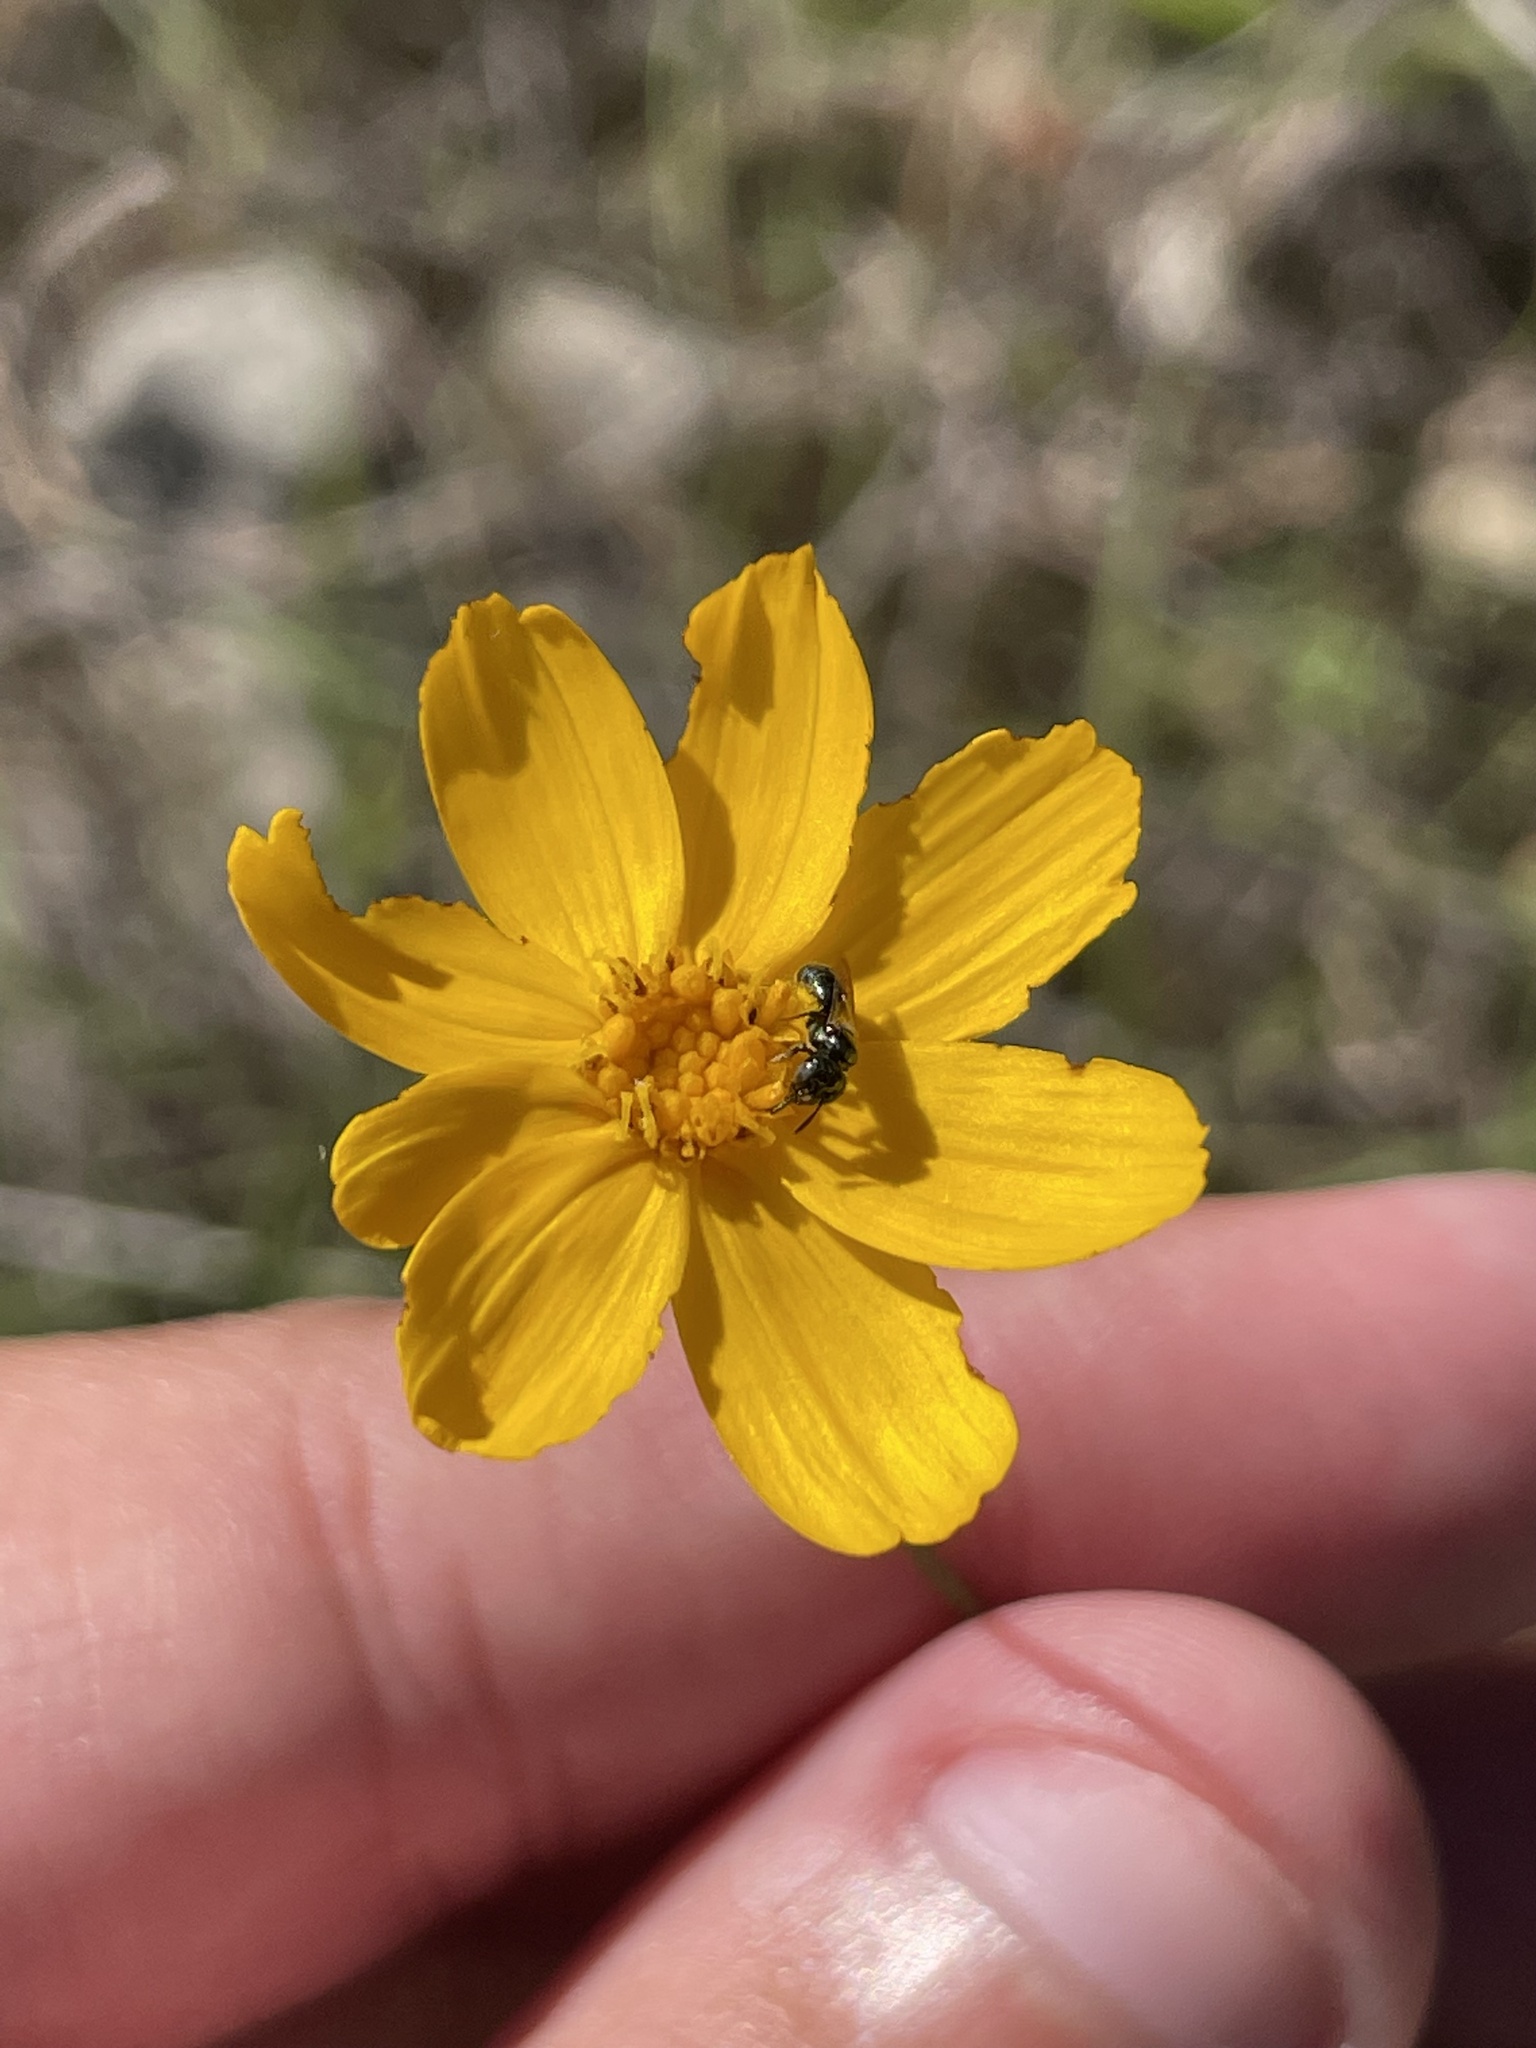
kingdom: Plantae
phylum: Tracheophyta
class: Magnoliopsida
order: Asterales
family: Asteraceae
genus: Thelesperma
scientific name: Thelesperma simplicifolium
